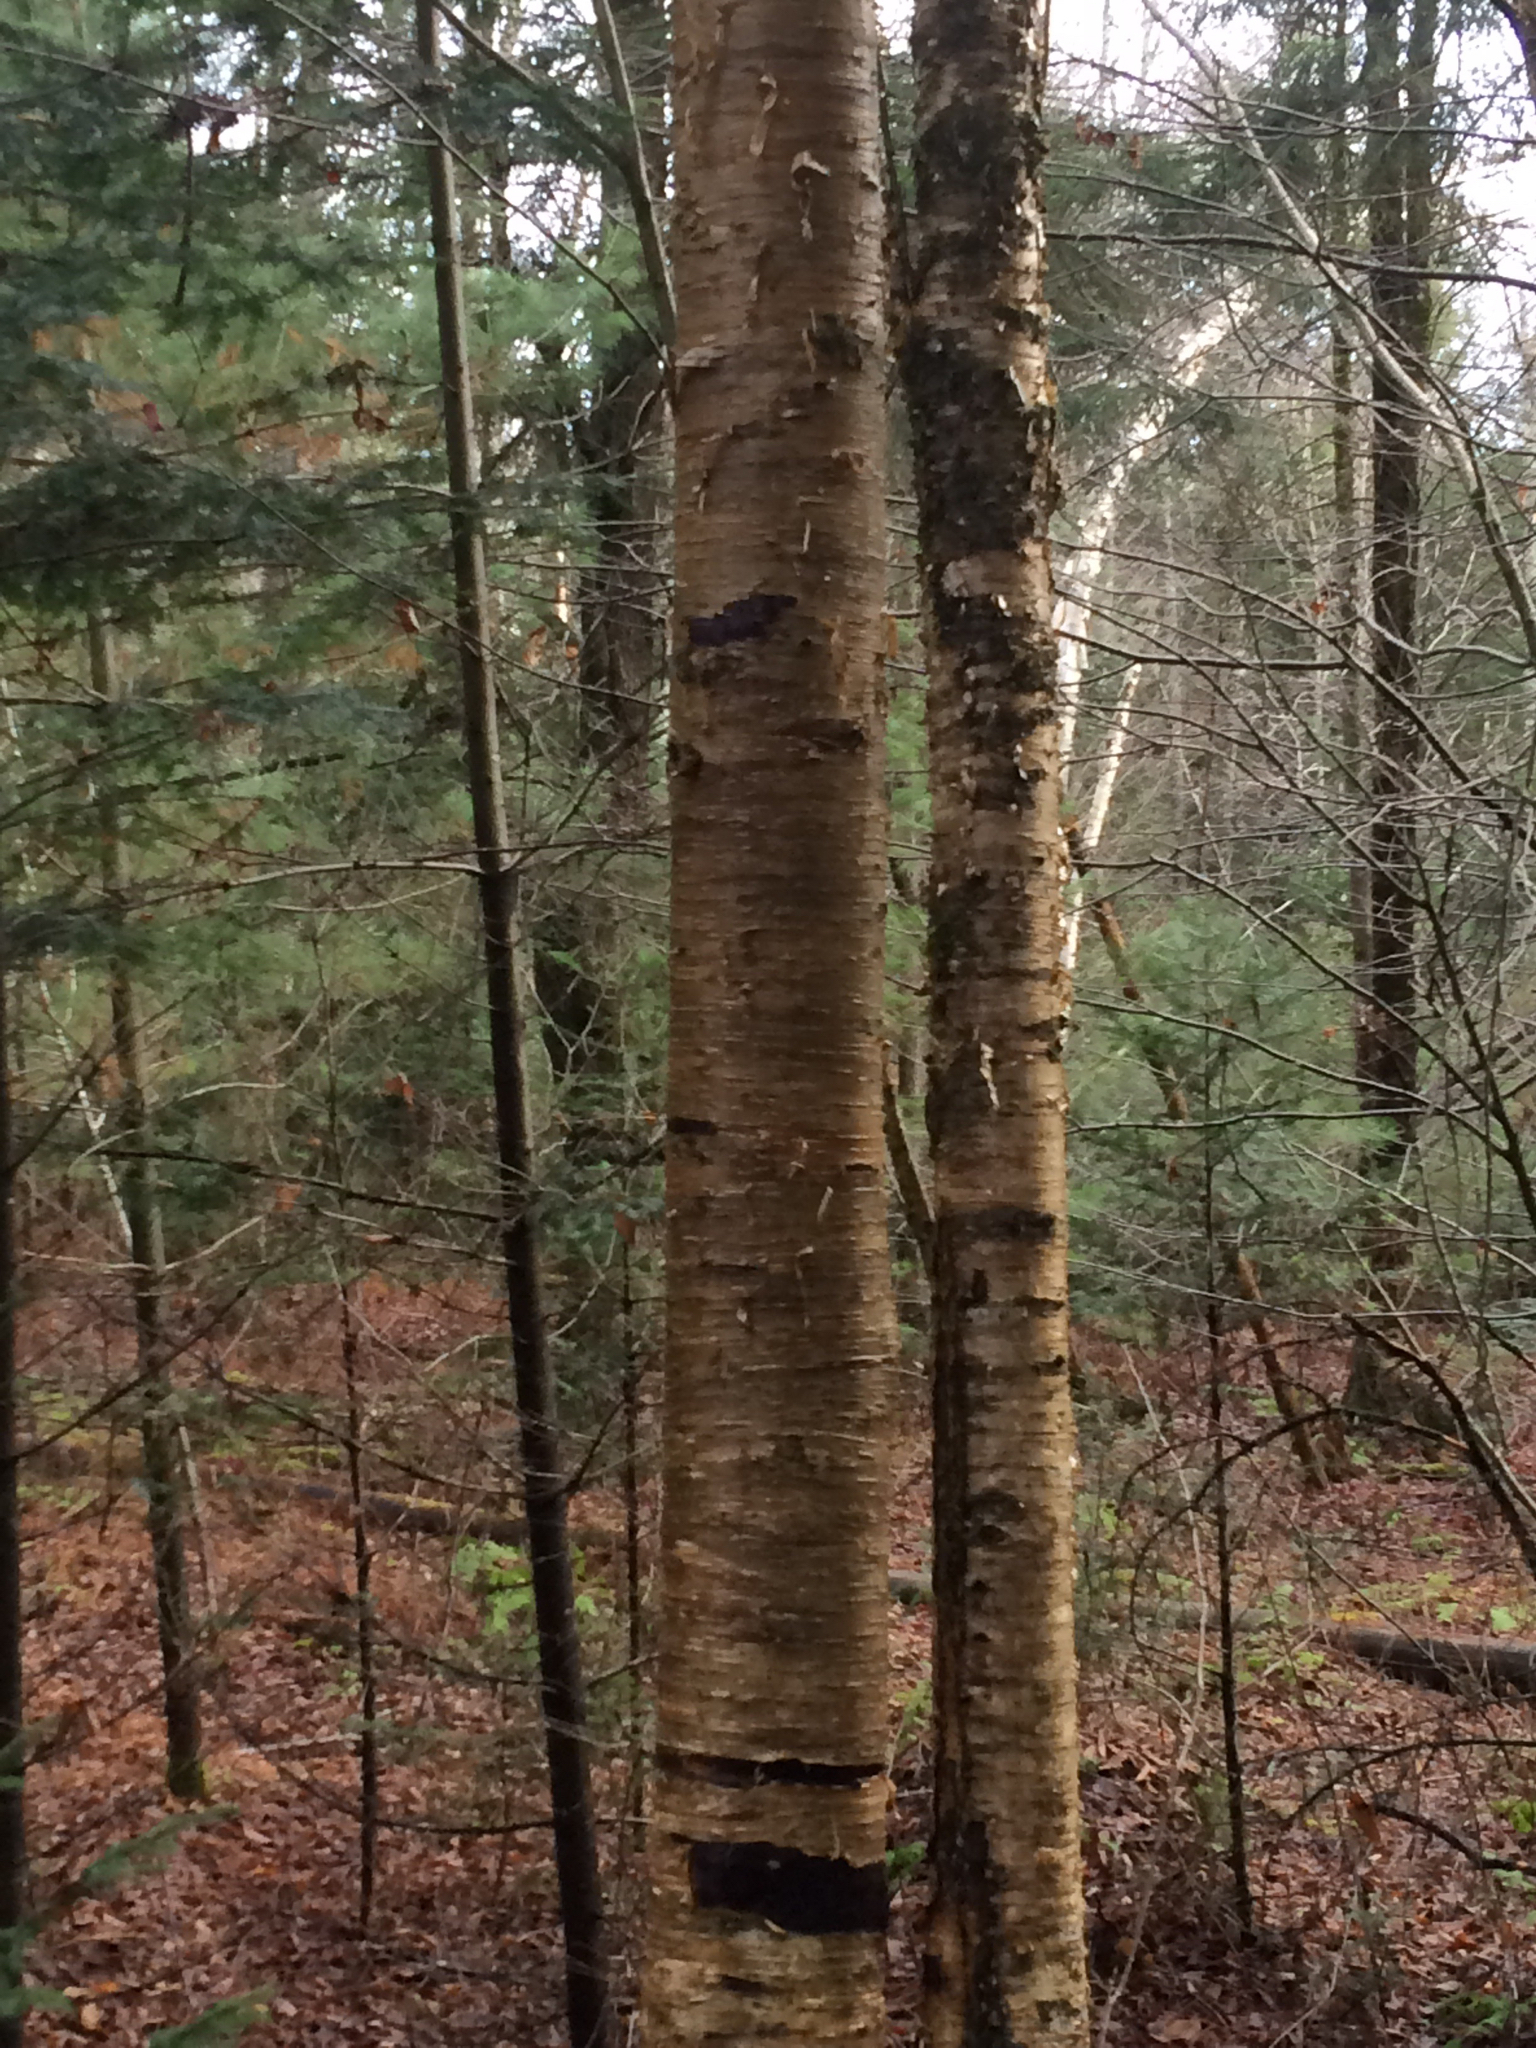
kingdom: Plantae
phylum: Tracheophyta
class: Magnoliopsida
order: Fagales
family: Betulaceae
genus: Betula
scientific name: Betula alleghaniensis
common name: Yellow birch
